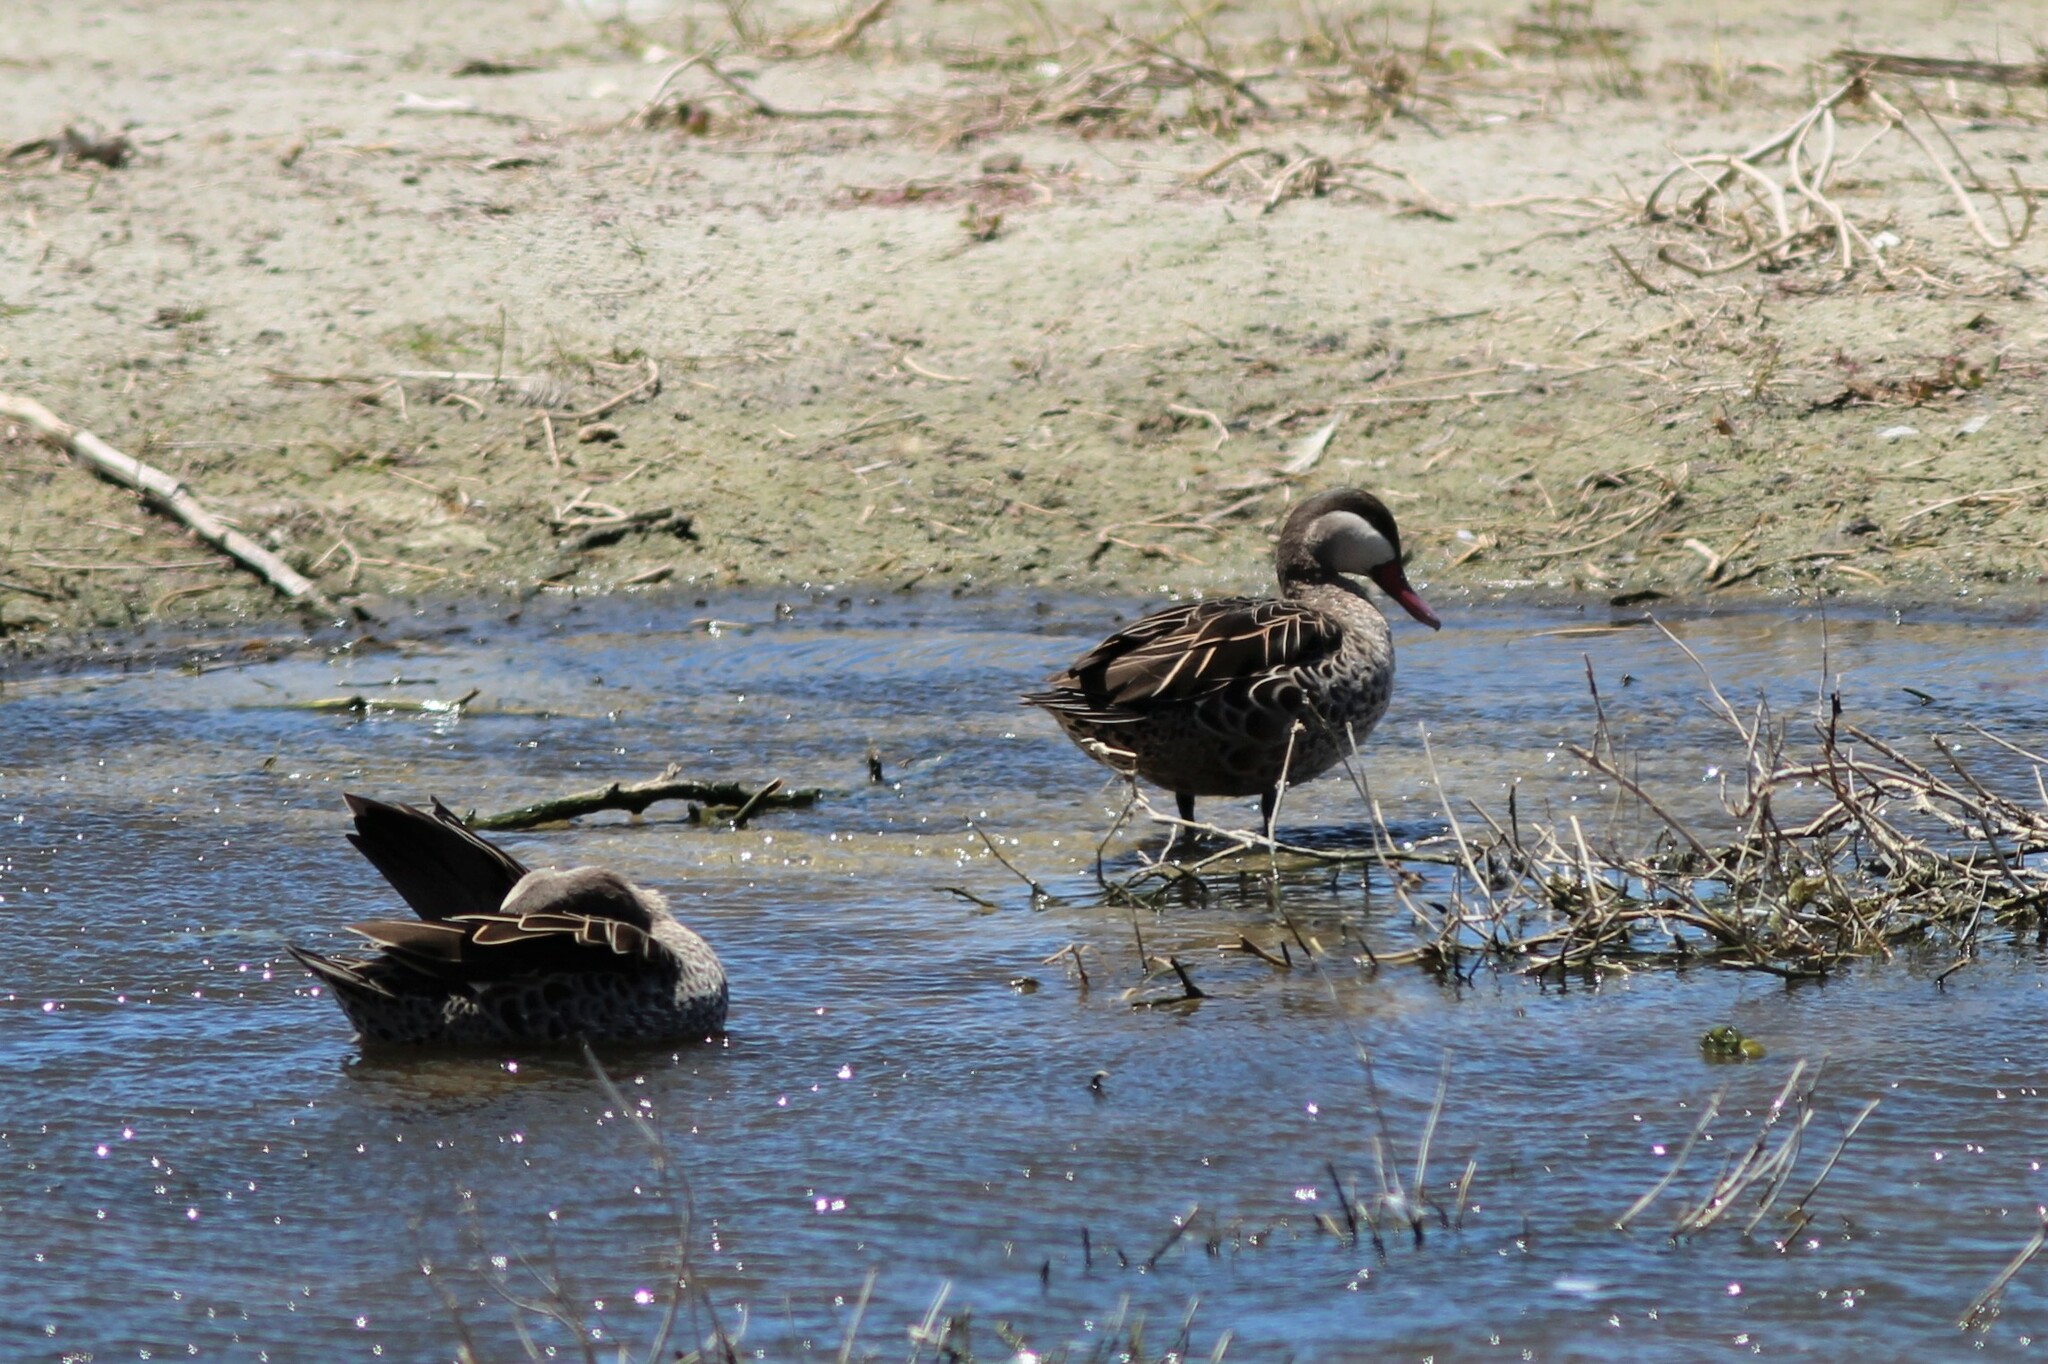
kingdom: Animalia
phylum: Chordata
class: Aves
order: Anseriformes
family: Anatidae
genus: Anas
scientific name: Anas erythrorhyncha
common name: Red-billed teal
